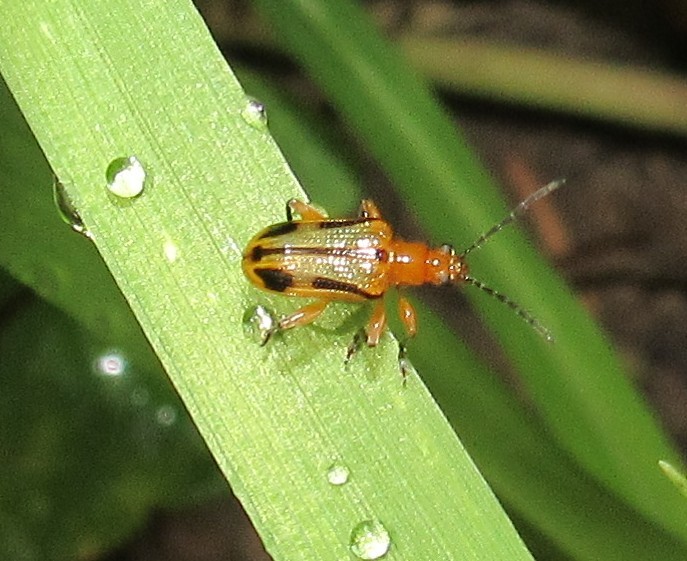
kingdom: Animalia
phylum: Arthropoda
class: Insecta
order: Coleoptera
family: Chrysomelidae
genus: Neolema
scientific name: Neolema
